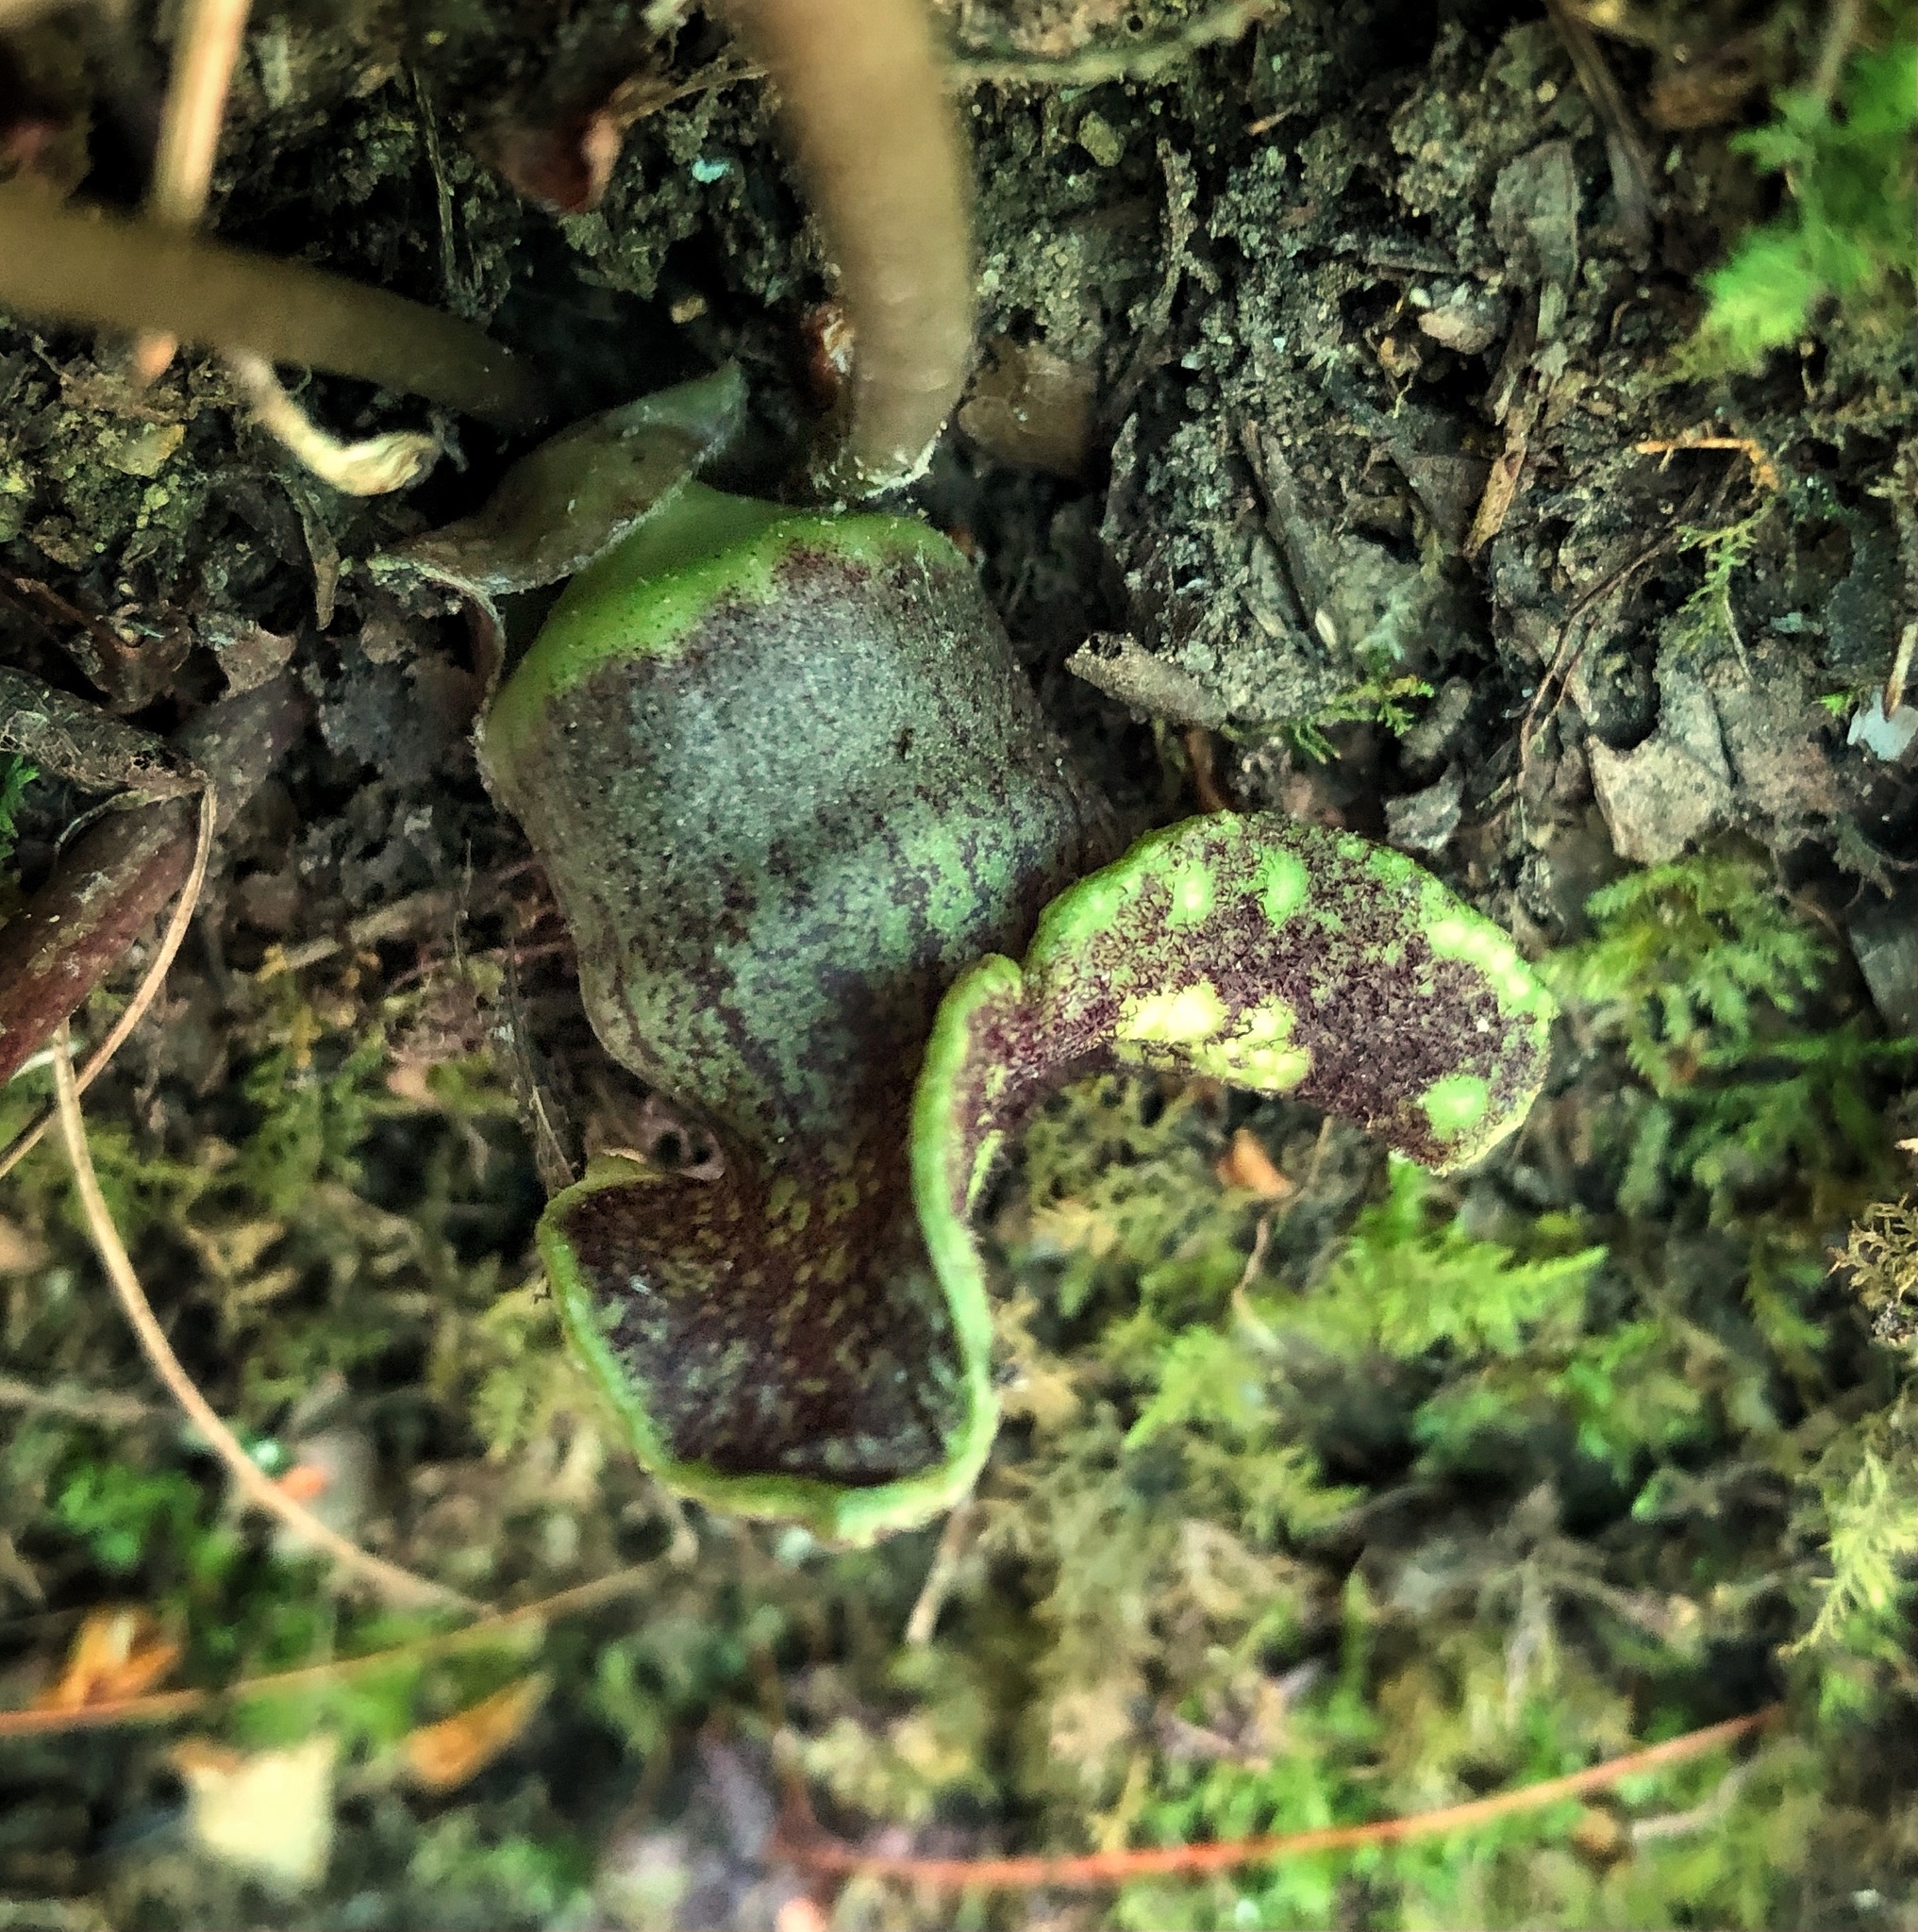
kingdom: Plantae
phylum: Tracheophyta
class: Magnoliopsida
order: Piperales
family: Aristolochiaceae
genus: Hexastylis
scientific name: Hexastylis shuttleworthii
